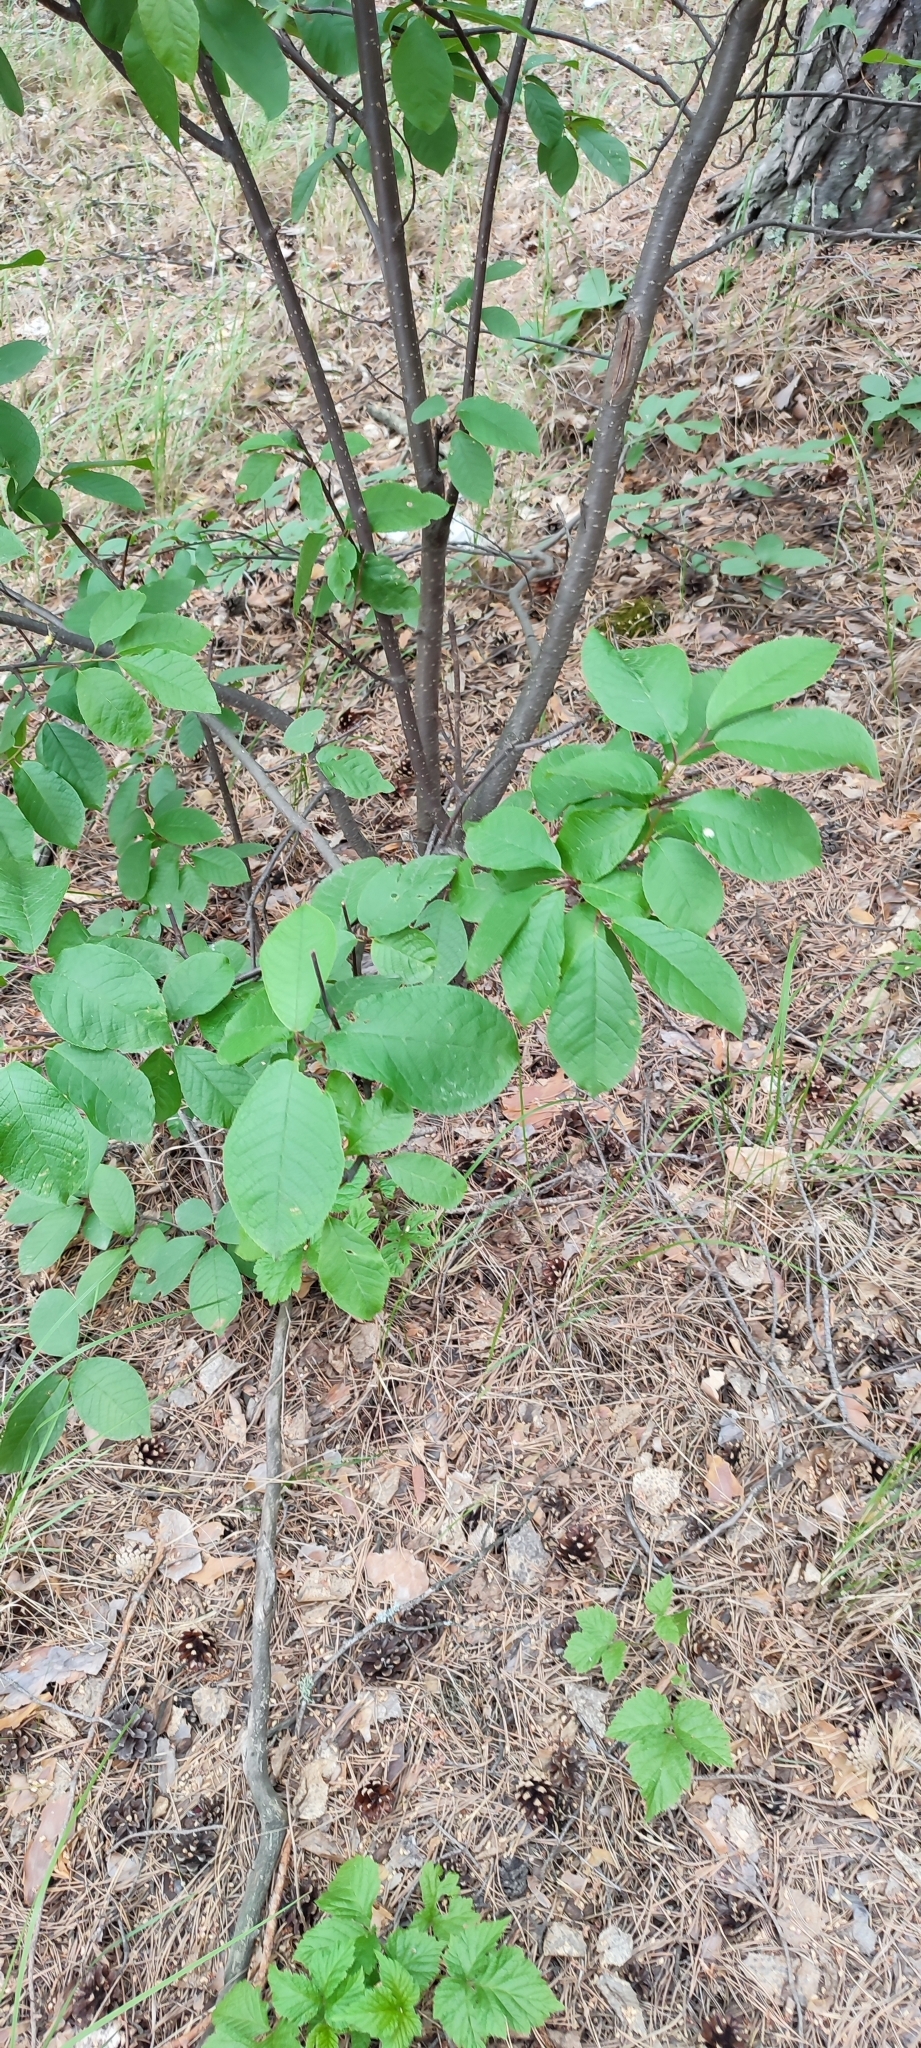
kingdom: Plantae
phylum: Tracheophyta
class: Magnoliopsida
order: Rosales
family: Rosaceae
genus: Prunus
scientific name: Prunus padus
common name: Bird cherry
